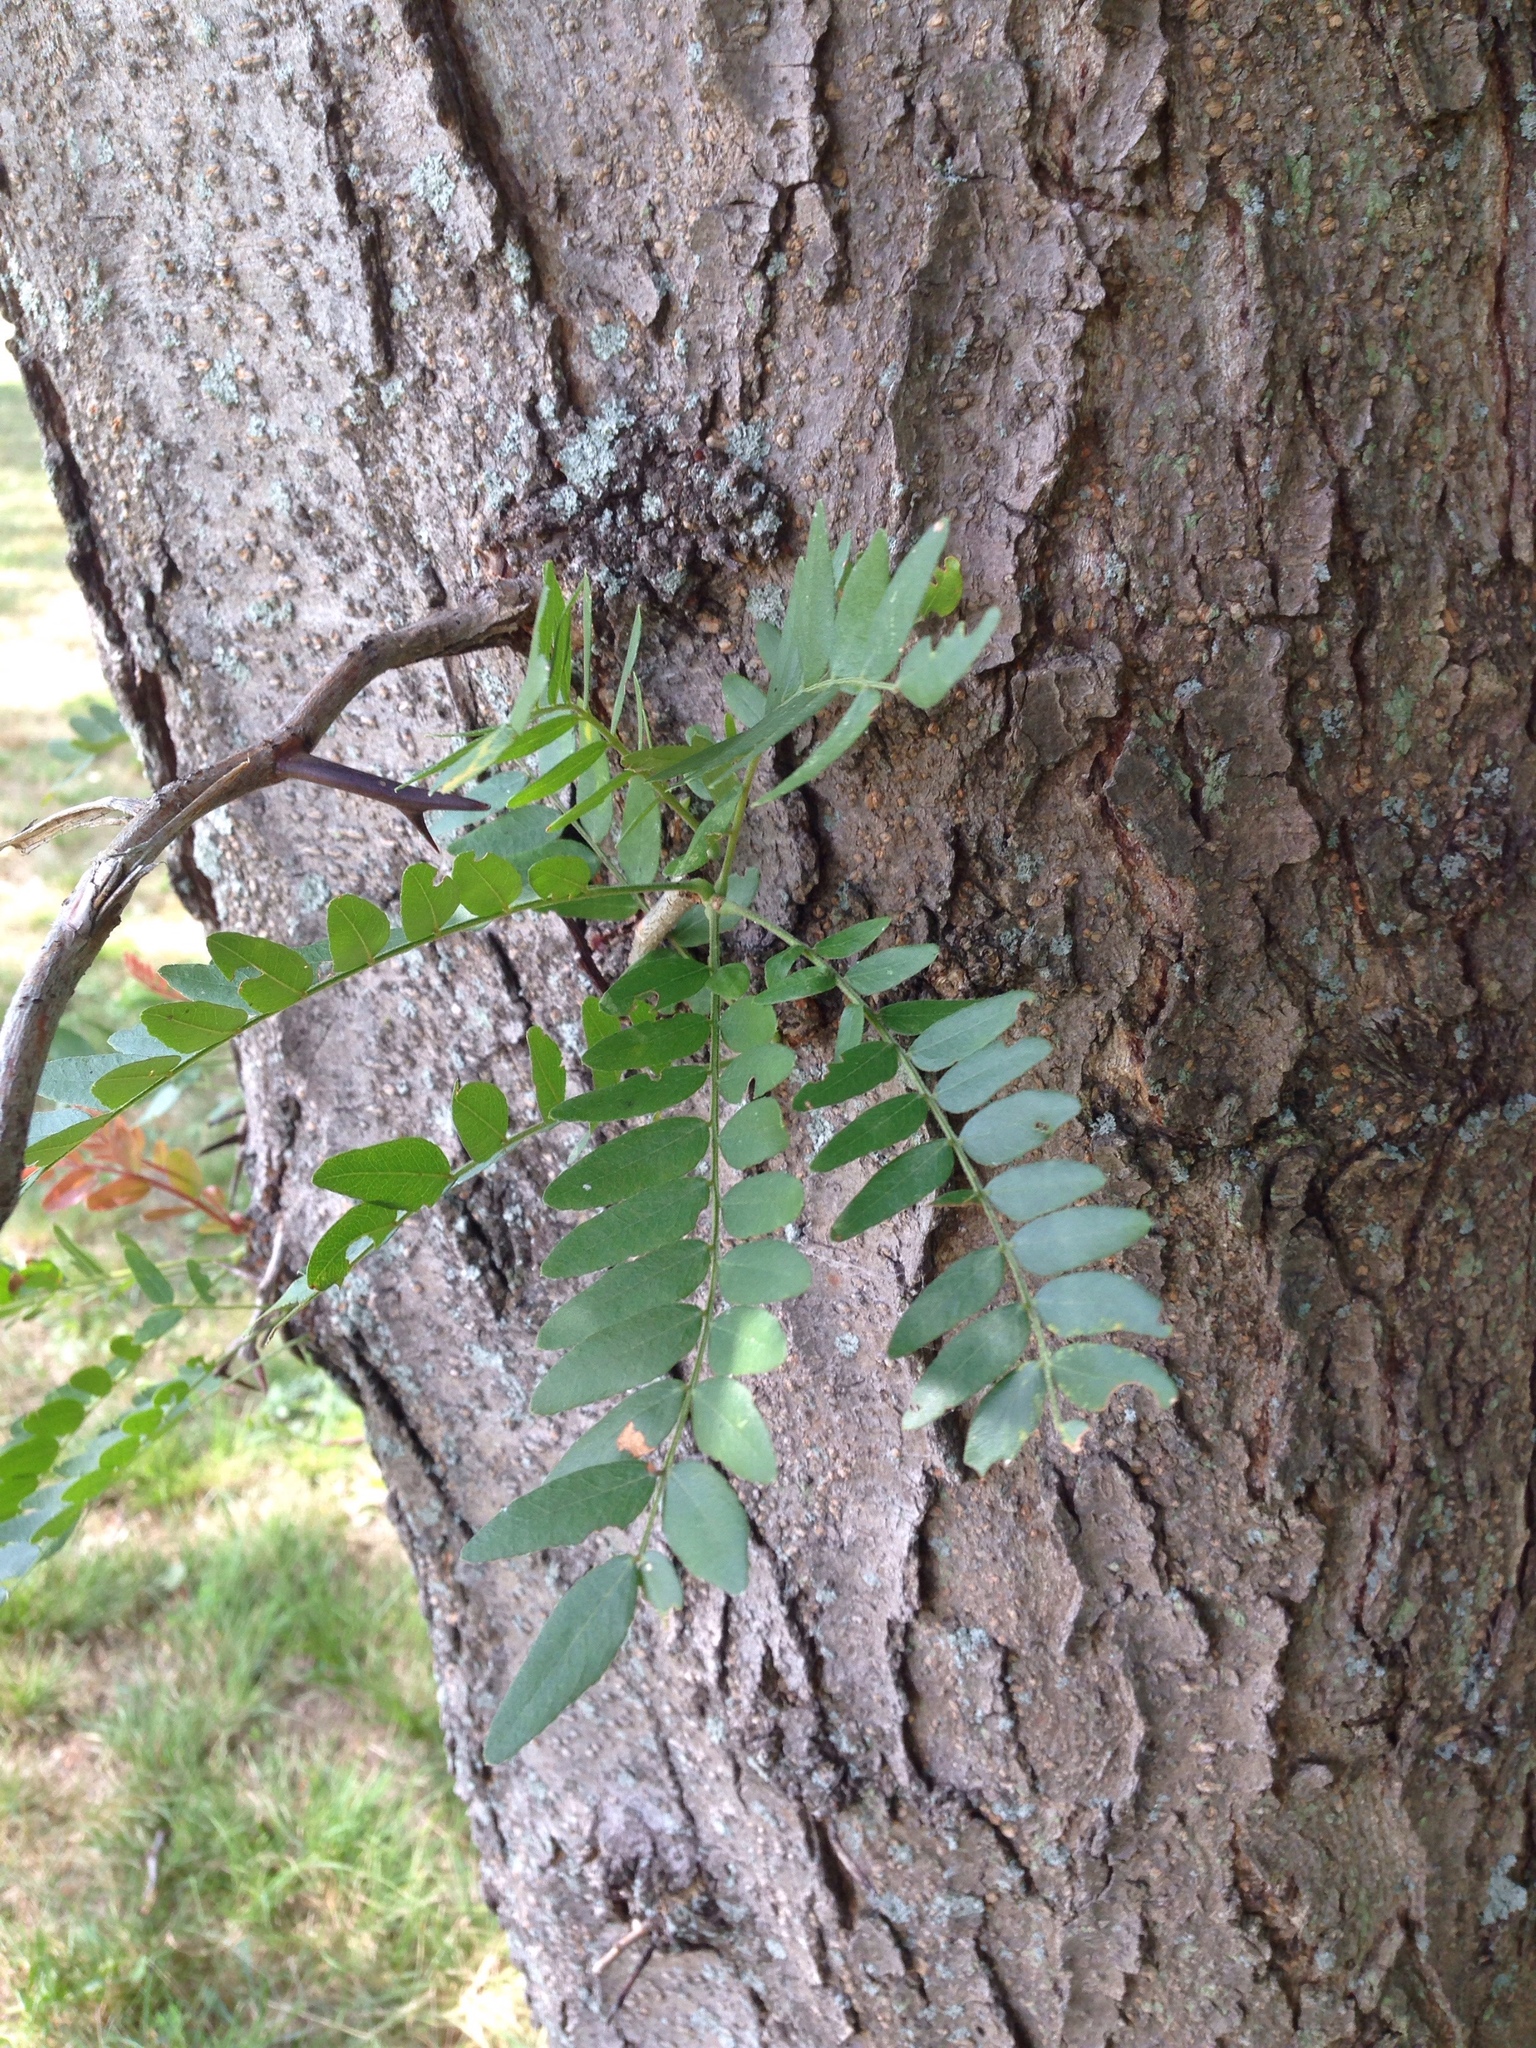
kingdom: Plantae
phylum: Tracheophyta
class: Magnoliopsida
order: Fabales
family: Fabaceae
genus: Gleditsia
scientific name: Gleditsia triacanthos
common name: Common honeylocust
